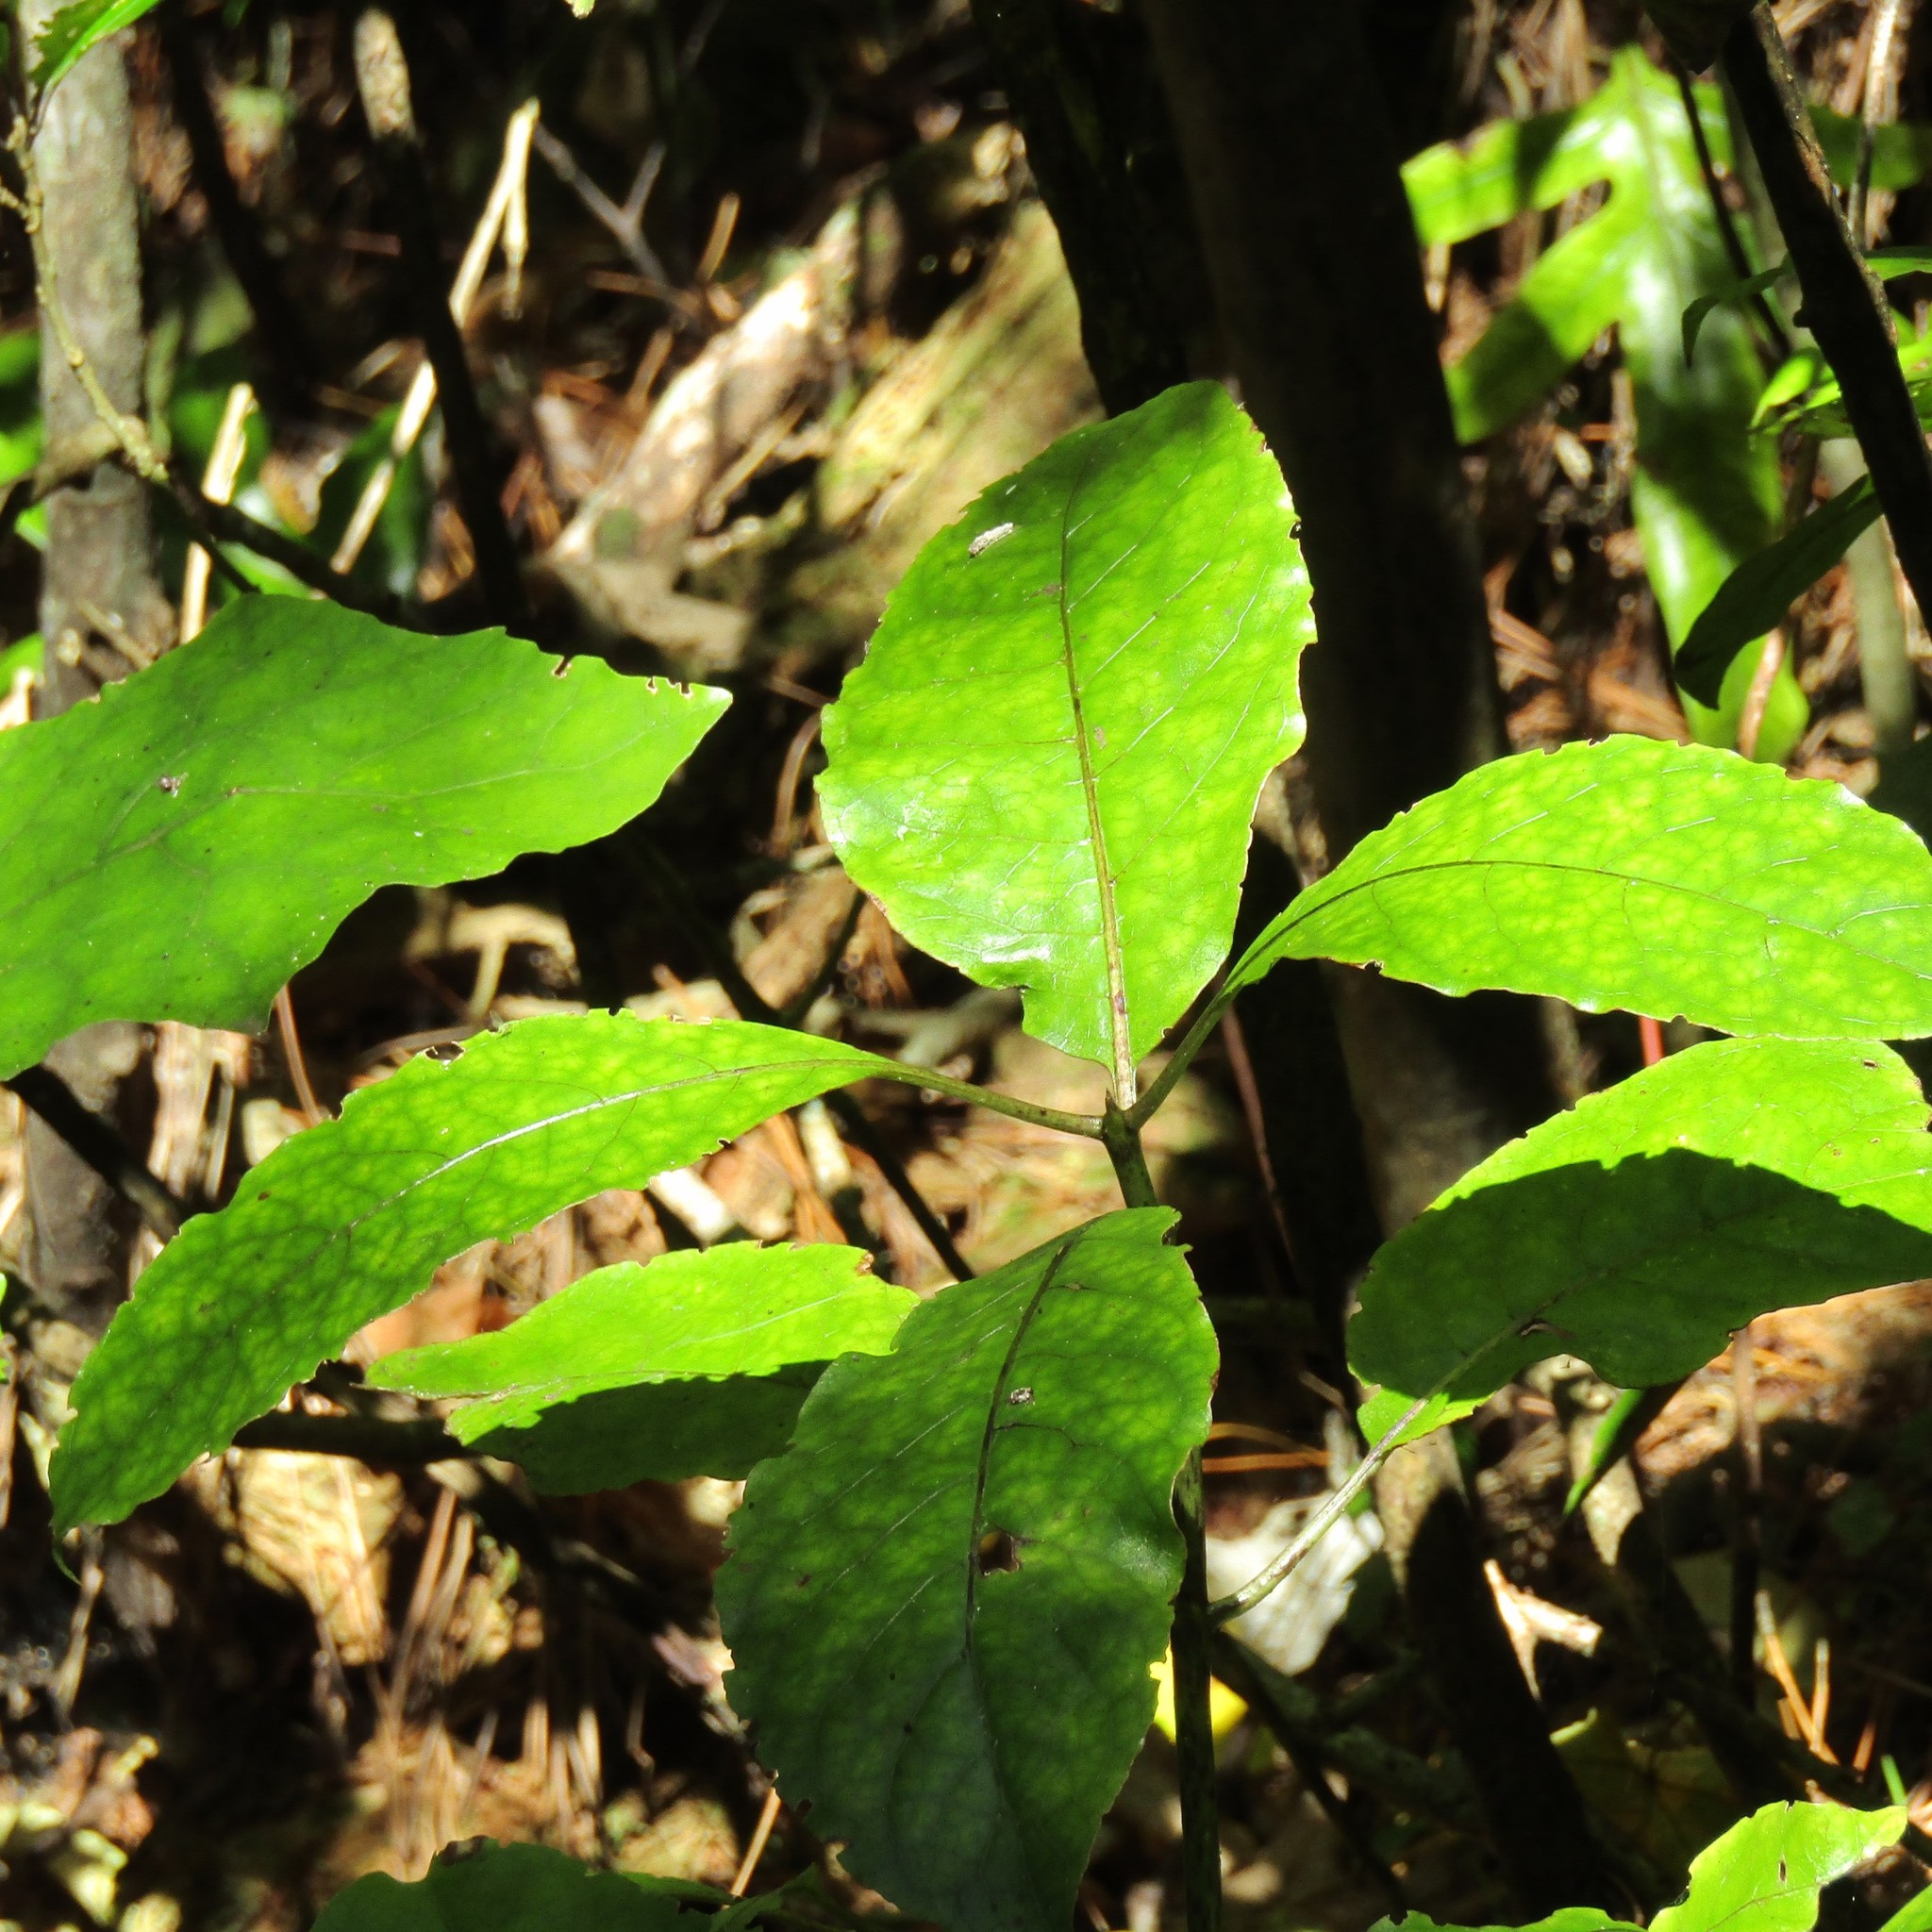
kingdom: Plantae
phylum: Tracheophyta
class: Magnoliopsida
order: Gentianales
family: Rubiaceae
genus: Coprosma
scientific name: Coprosma autumnalis
